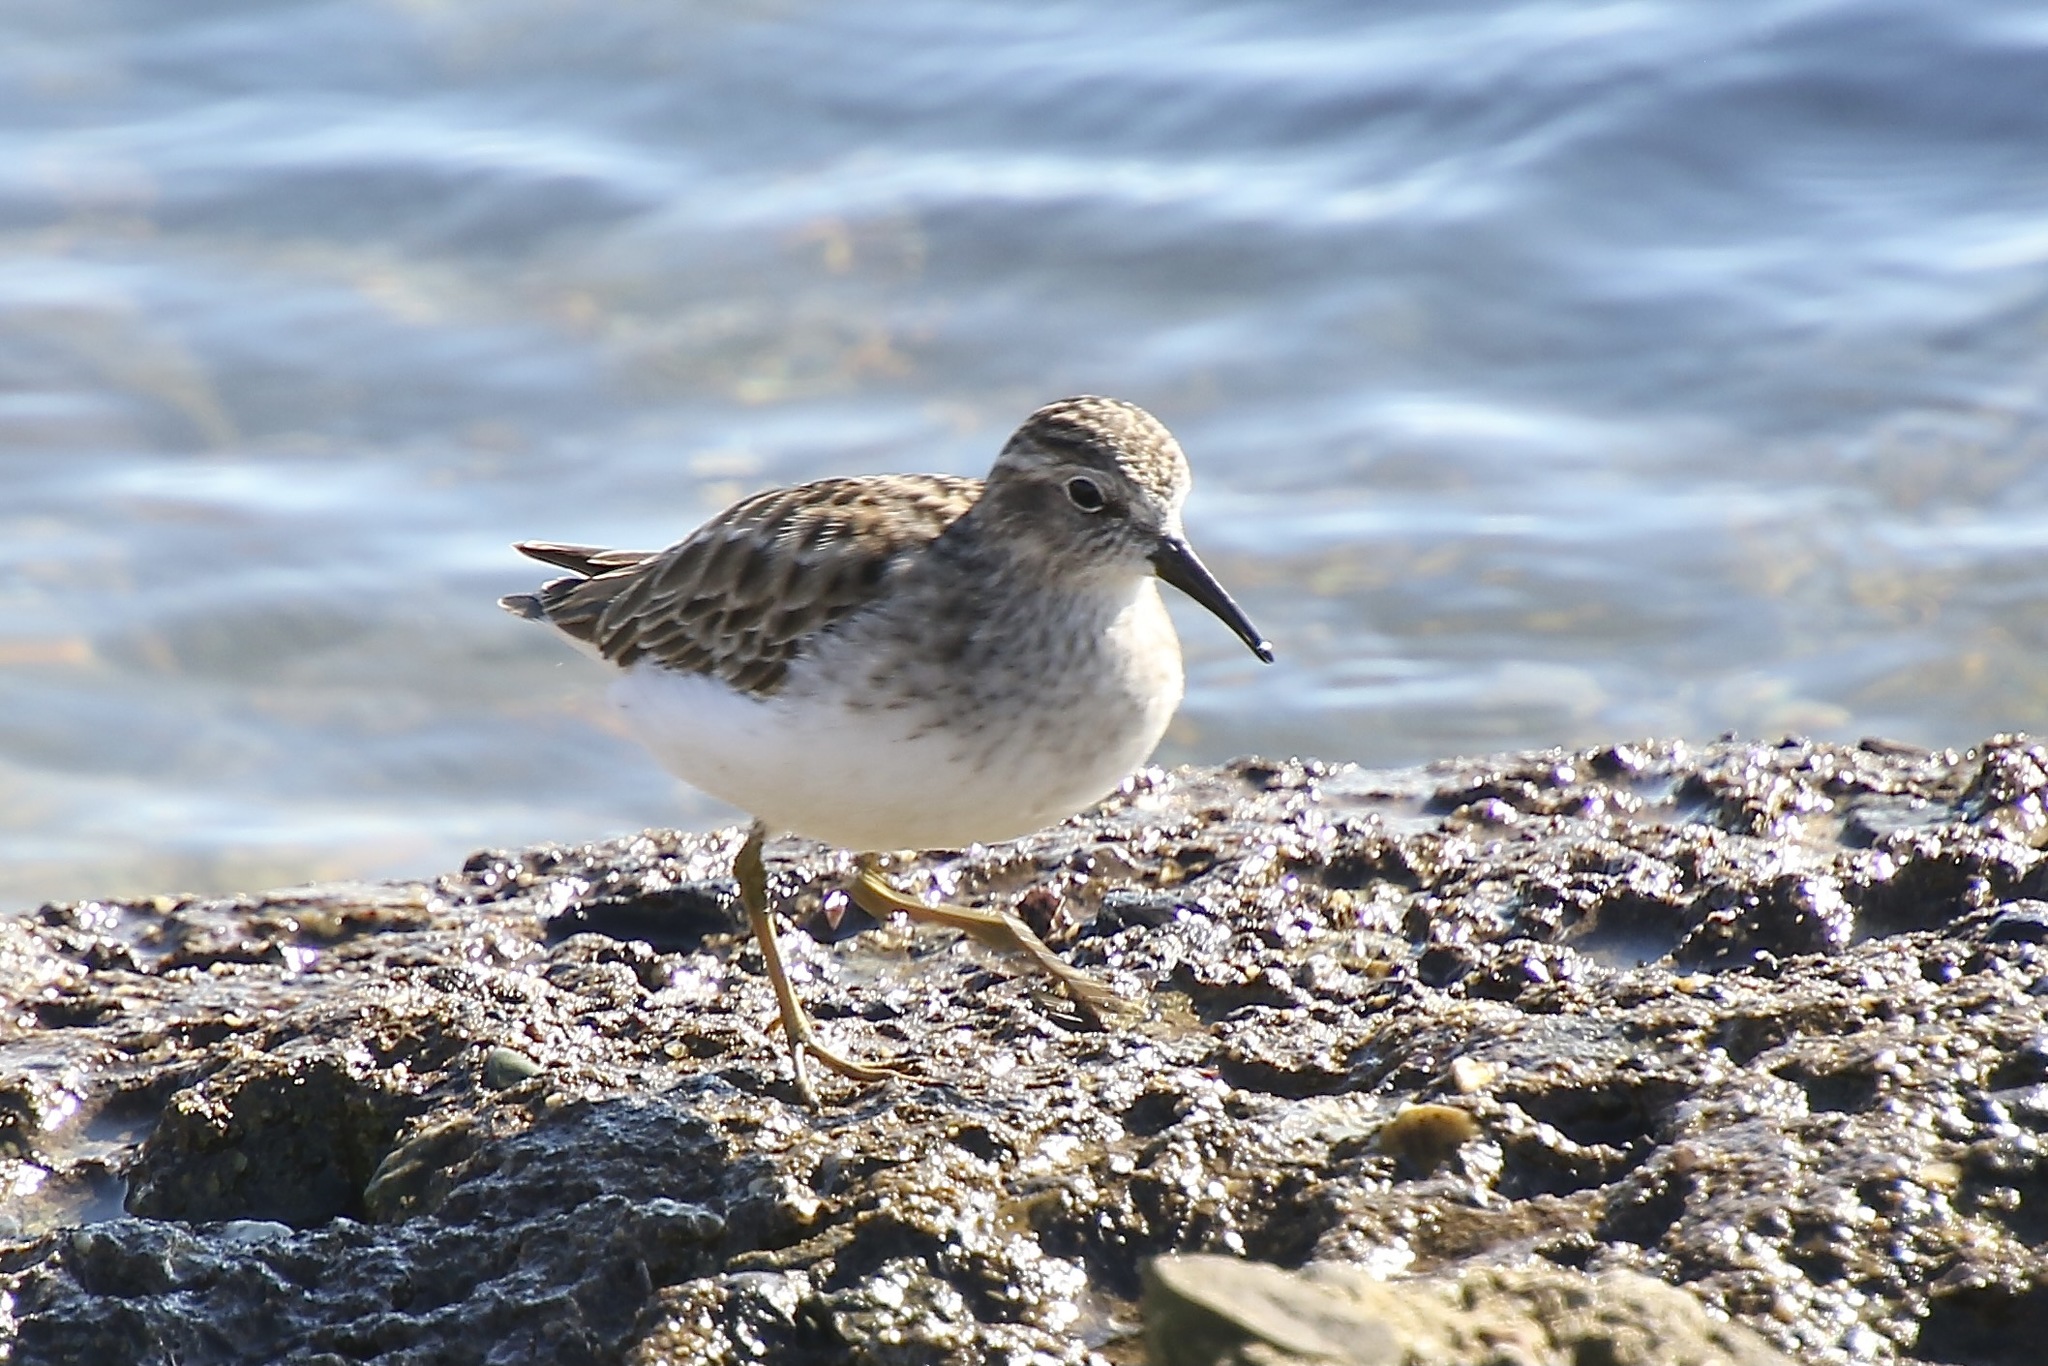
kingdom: Animalia
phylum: Chordata
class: Aves
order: Charadriiformes
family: Scolopacidae
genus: Calidris
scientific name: Calidris minutilla
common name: Least sandpiper
